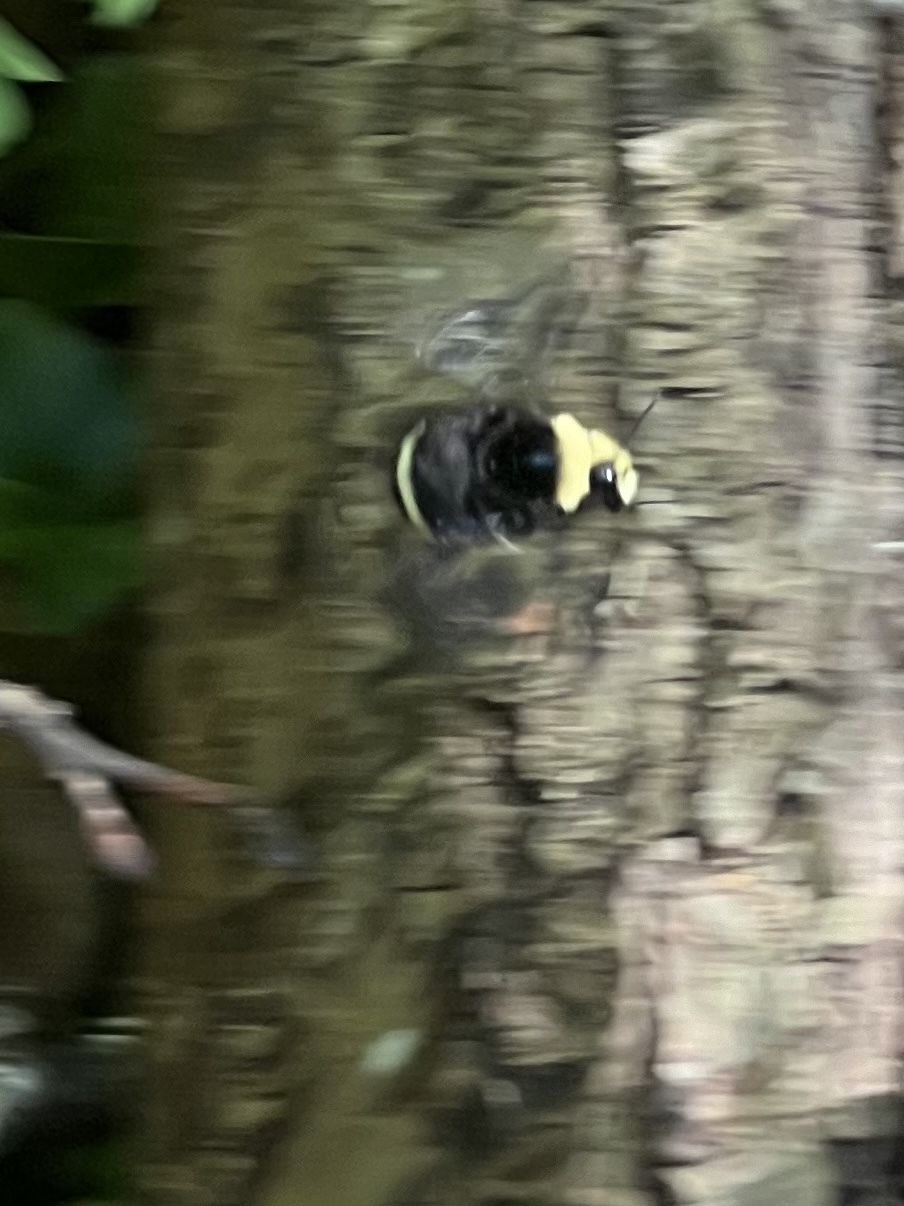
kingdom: Animalia
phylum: Arthropoda
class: Insecta
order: Hymenoptera
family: Apidae
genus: Bombus
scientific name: Bombus vosnesenskii
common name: Vosnesensky bumble bee
